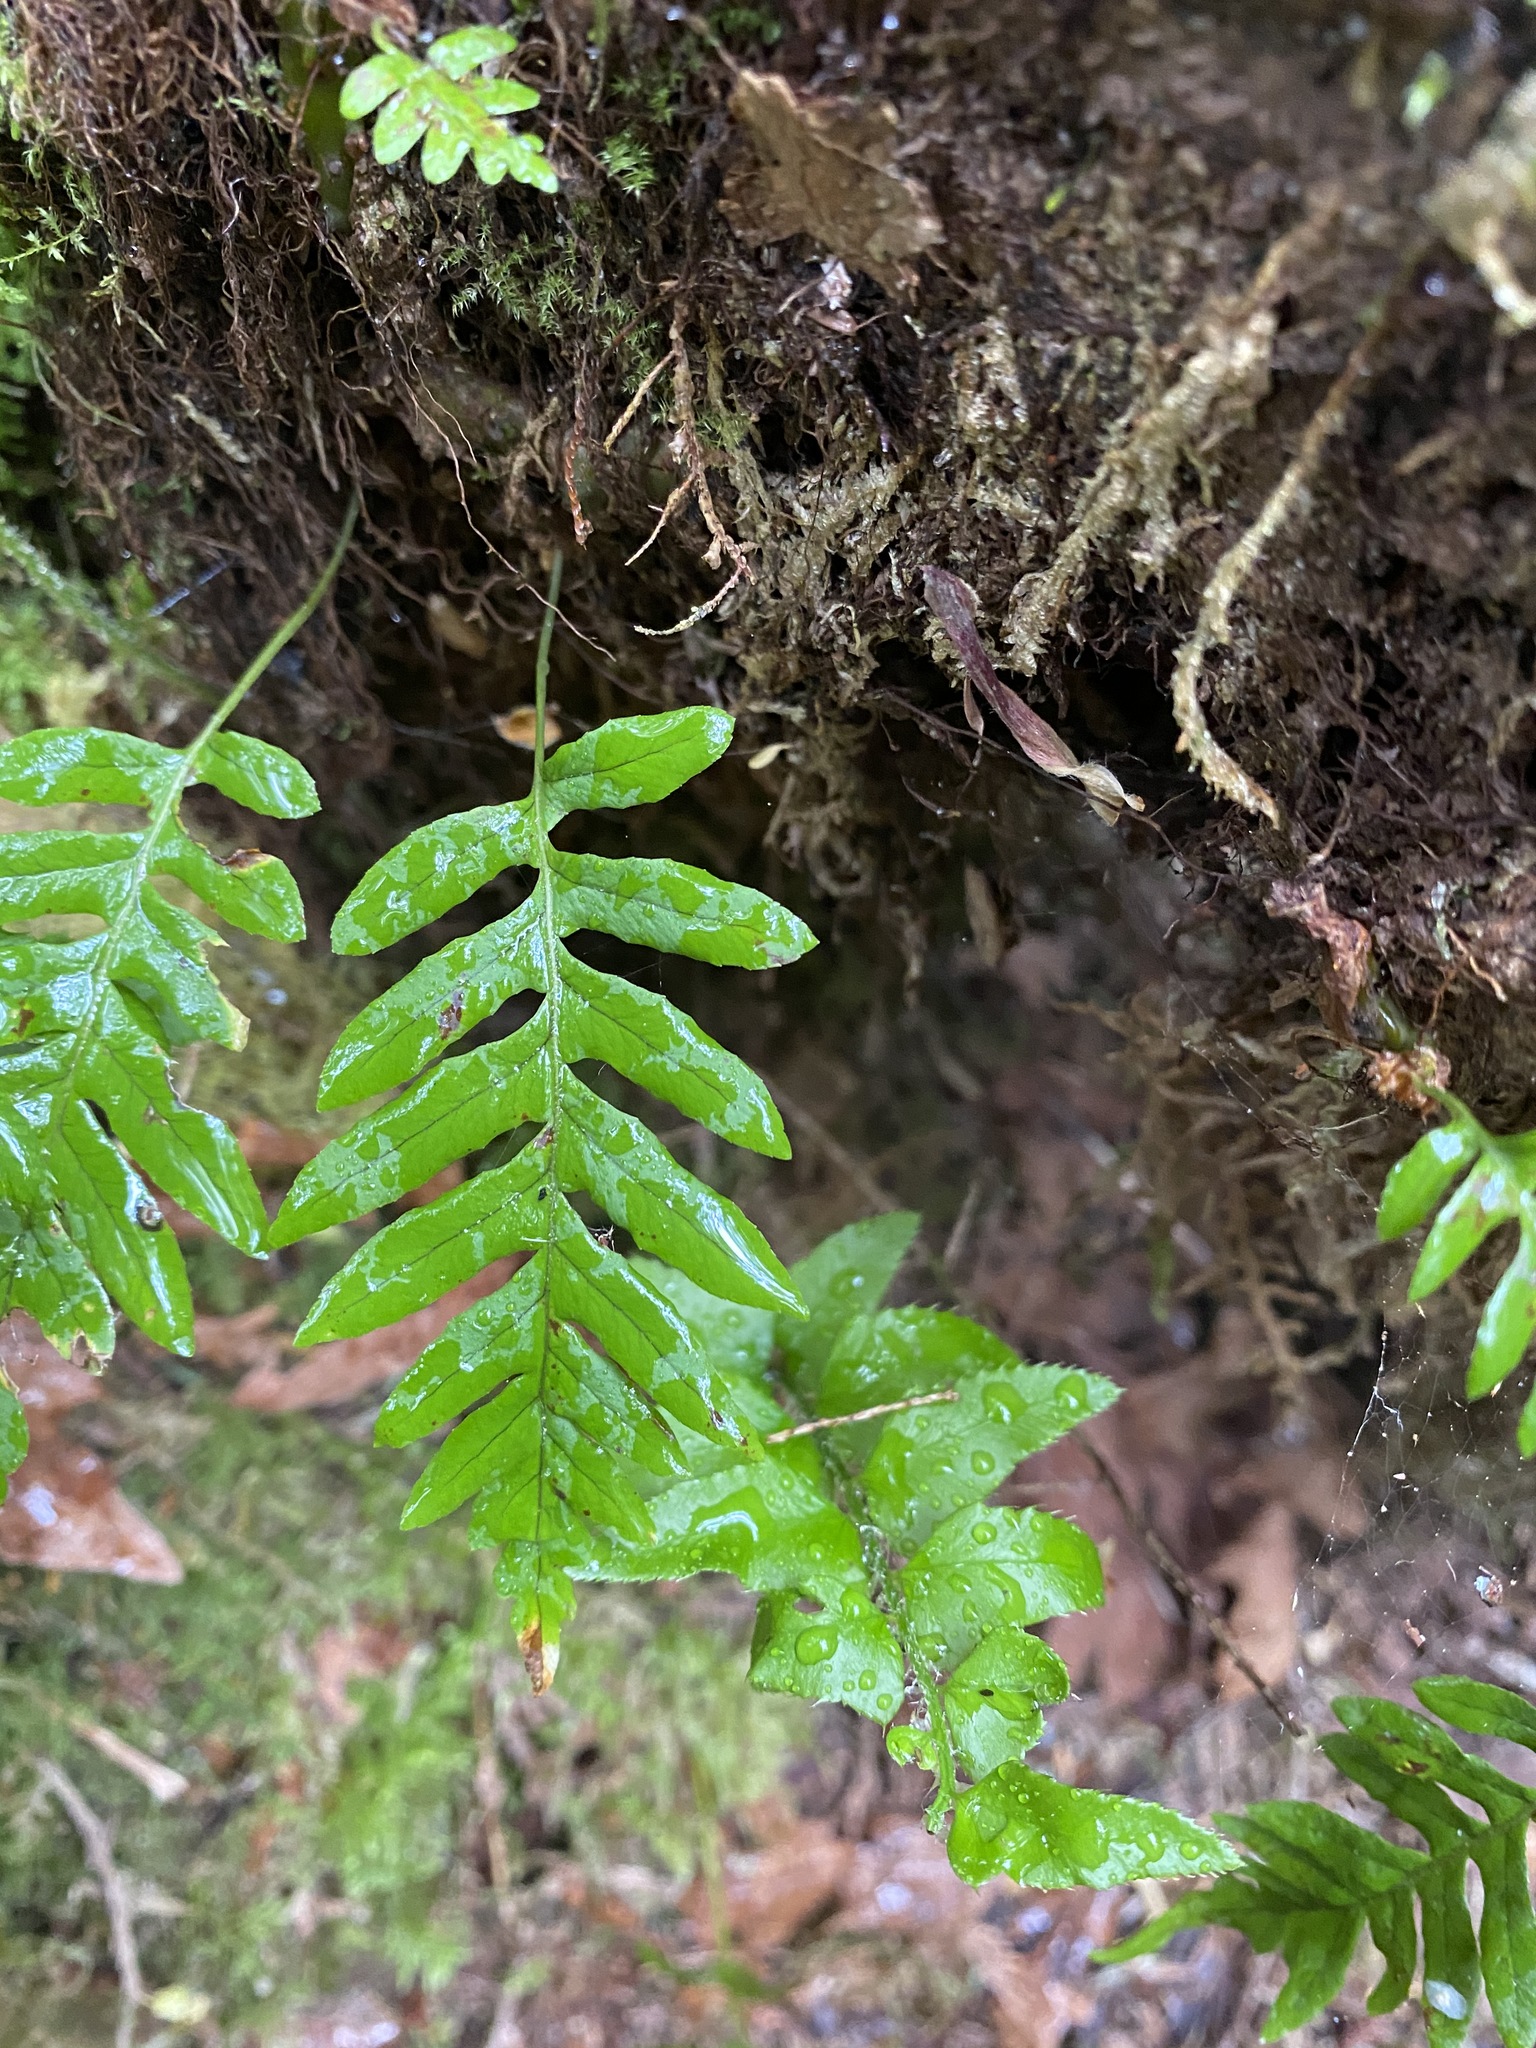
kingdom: Plantae
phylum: Tracheophyta
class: Polypodiopsida
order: Polypodiales
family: Polypodiaceae
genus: Polypodium
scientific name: Polypodium glycyrrhiza
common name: Licorice fern
